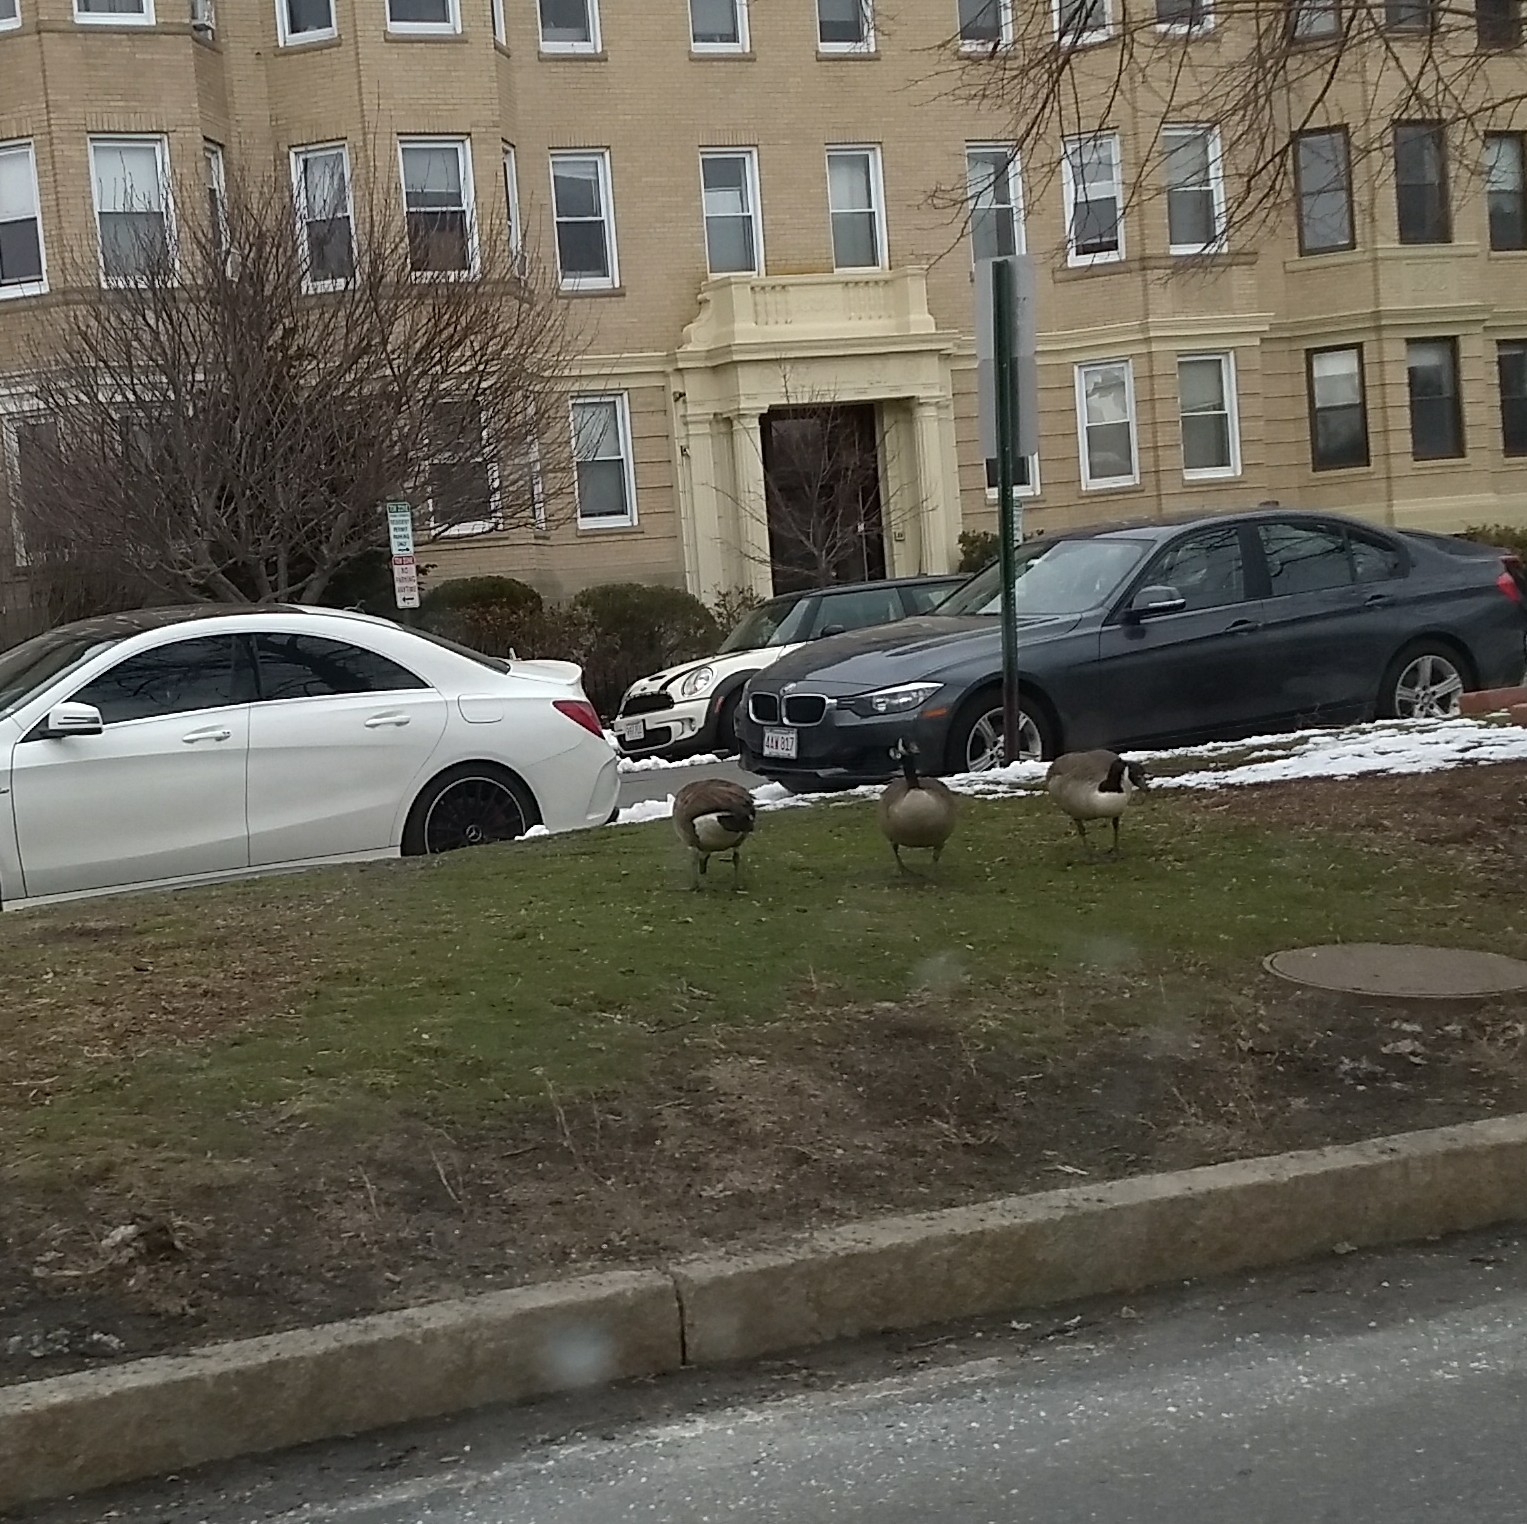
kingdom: Animalia
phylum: Chordata
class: Aves
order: Anseriformes
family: Anatidae
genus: Branta
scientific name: Branta canadensis
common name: Canada goose
